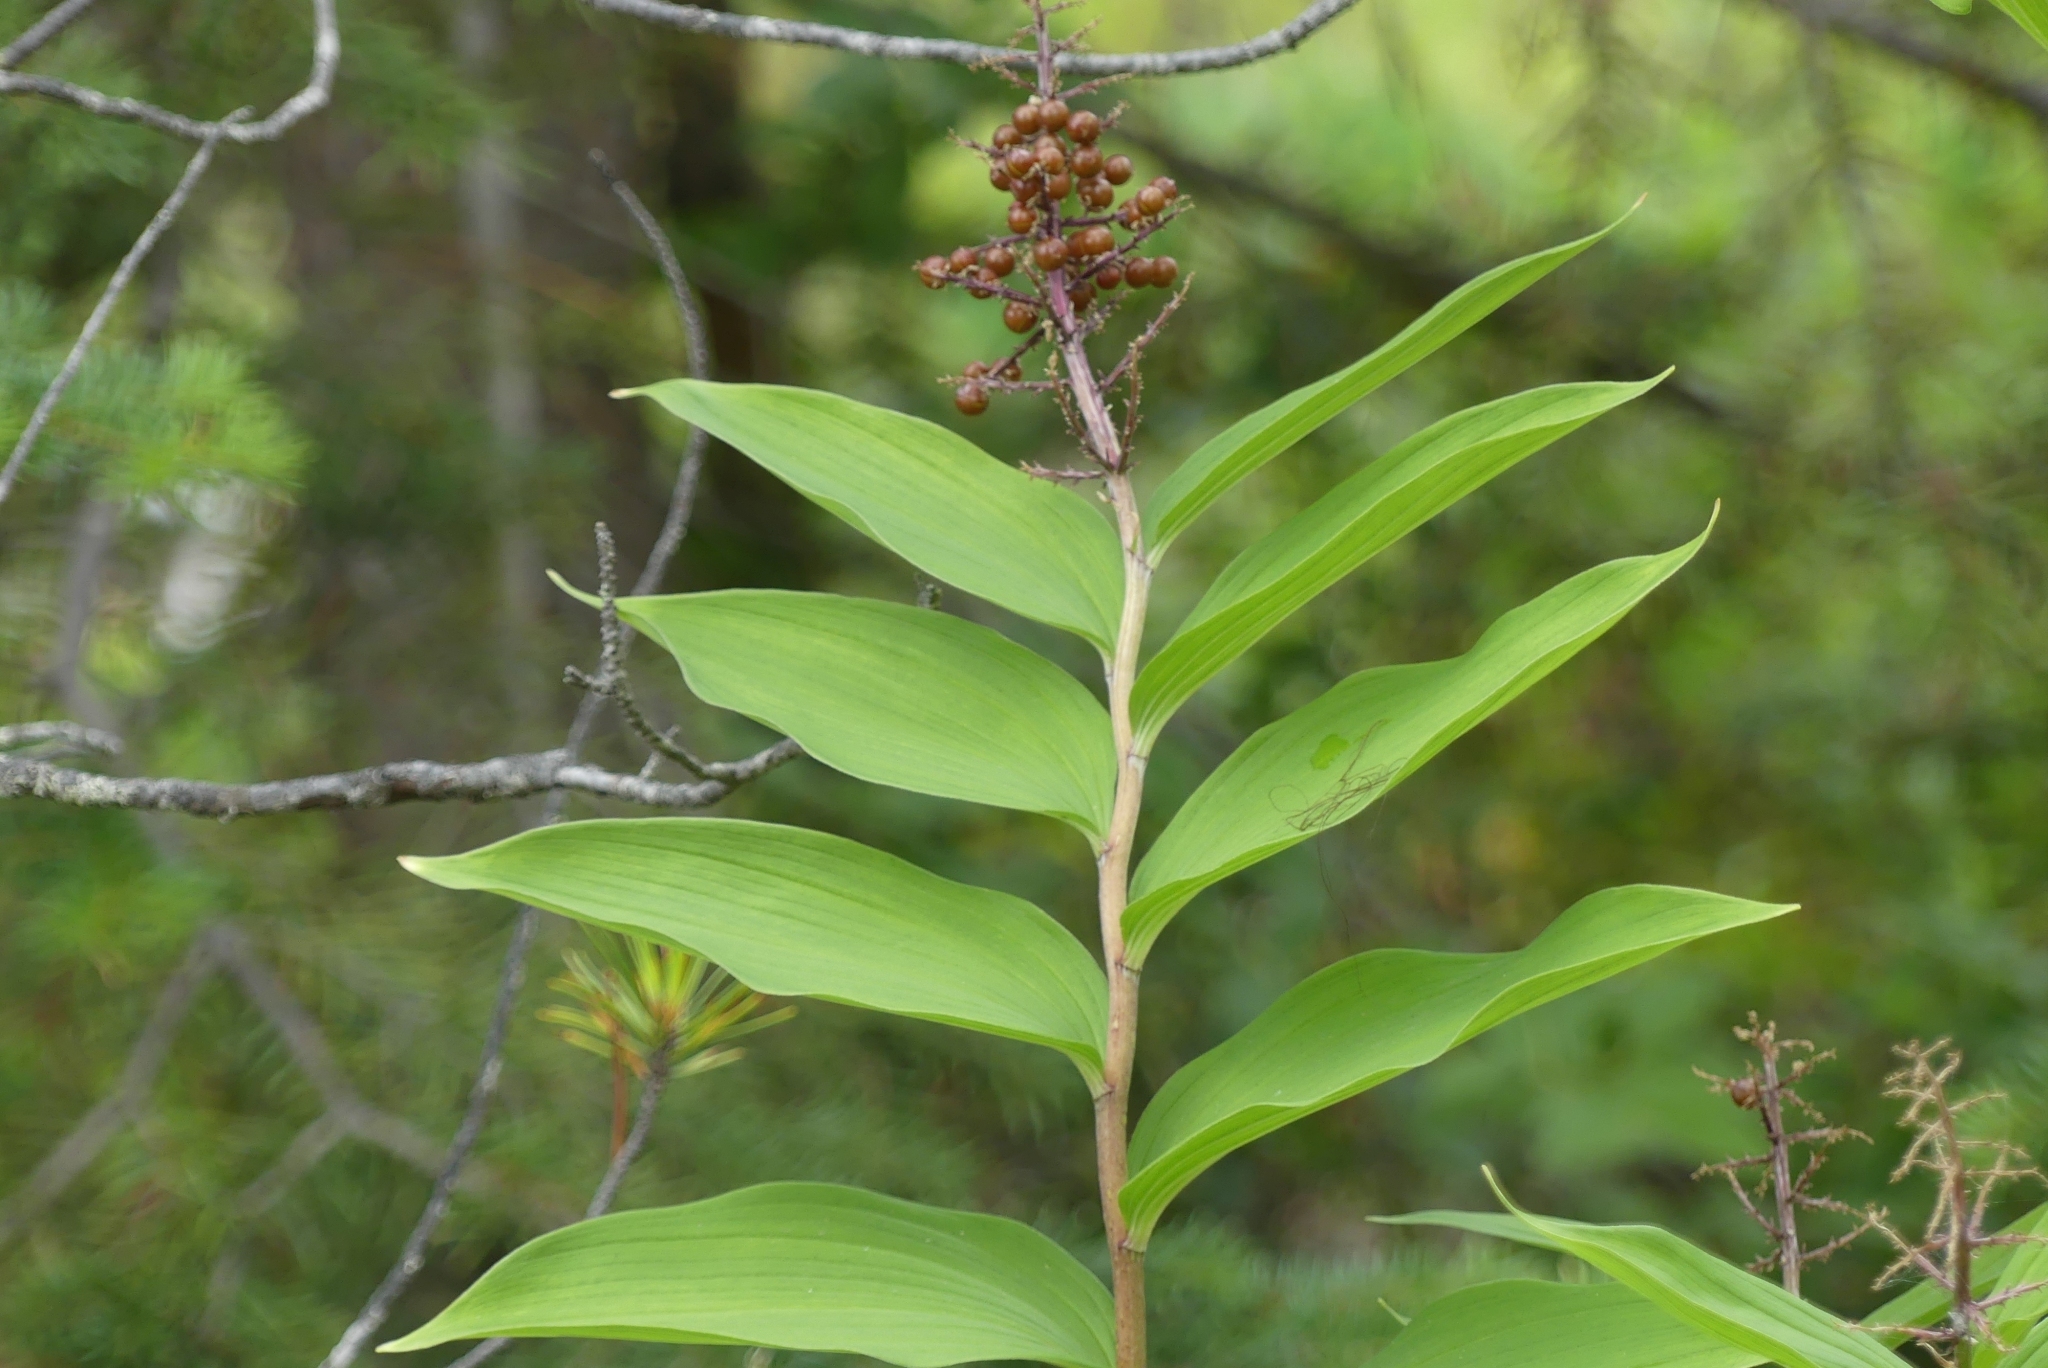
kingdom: Plantae
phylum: Tracheophyta
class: Liliopsida
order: Asparagales
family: Asparagaceae
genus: Maianthemum
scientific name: Maianthemum racemosum
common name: False spikenard
